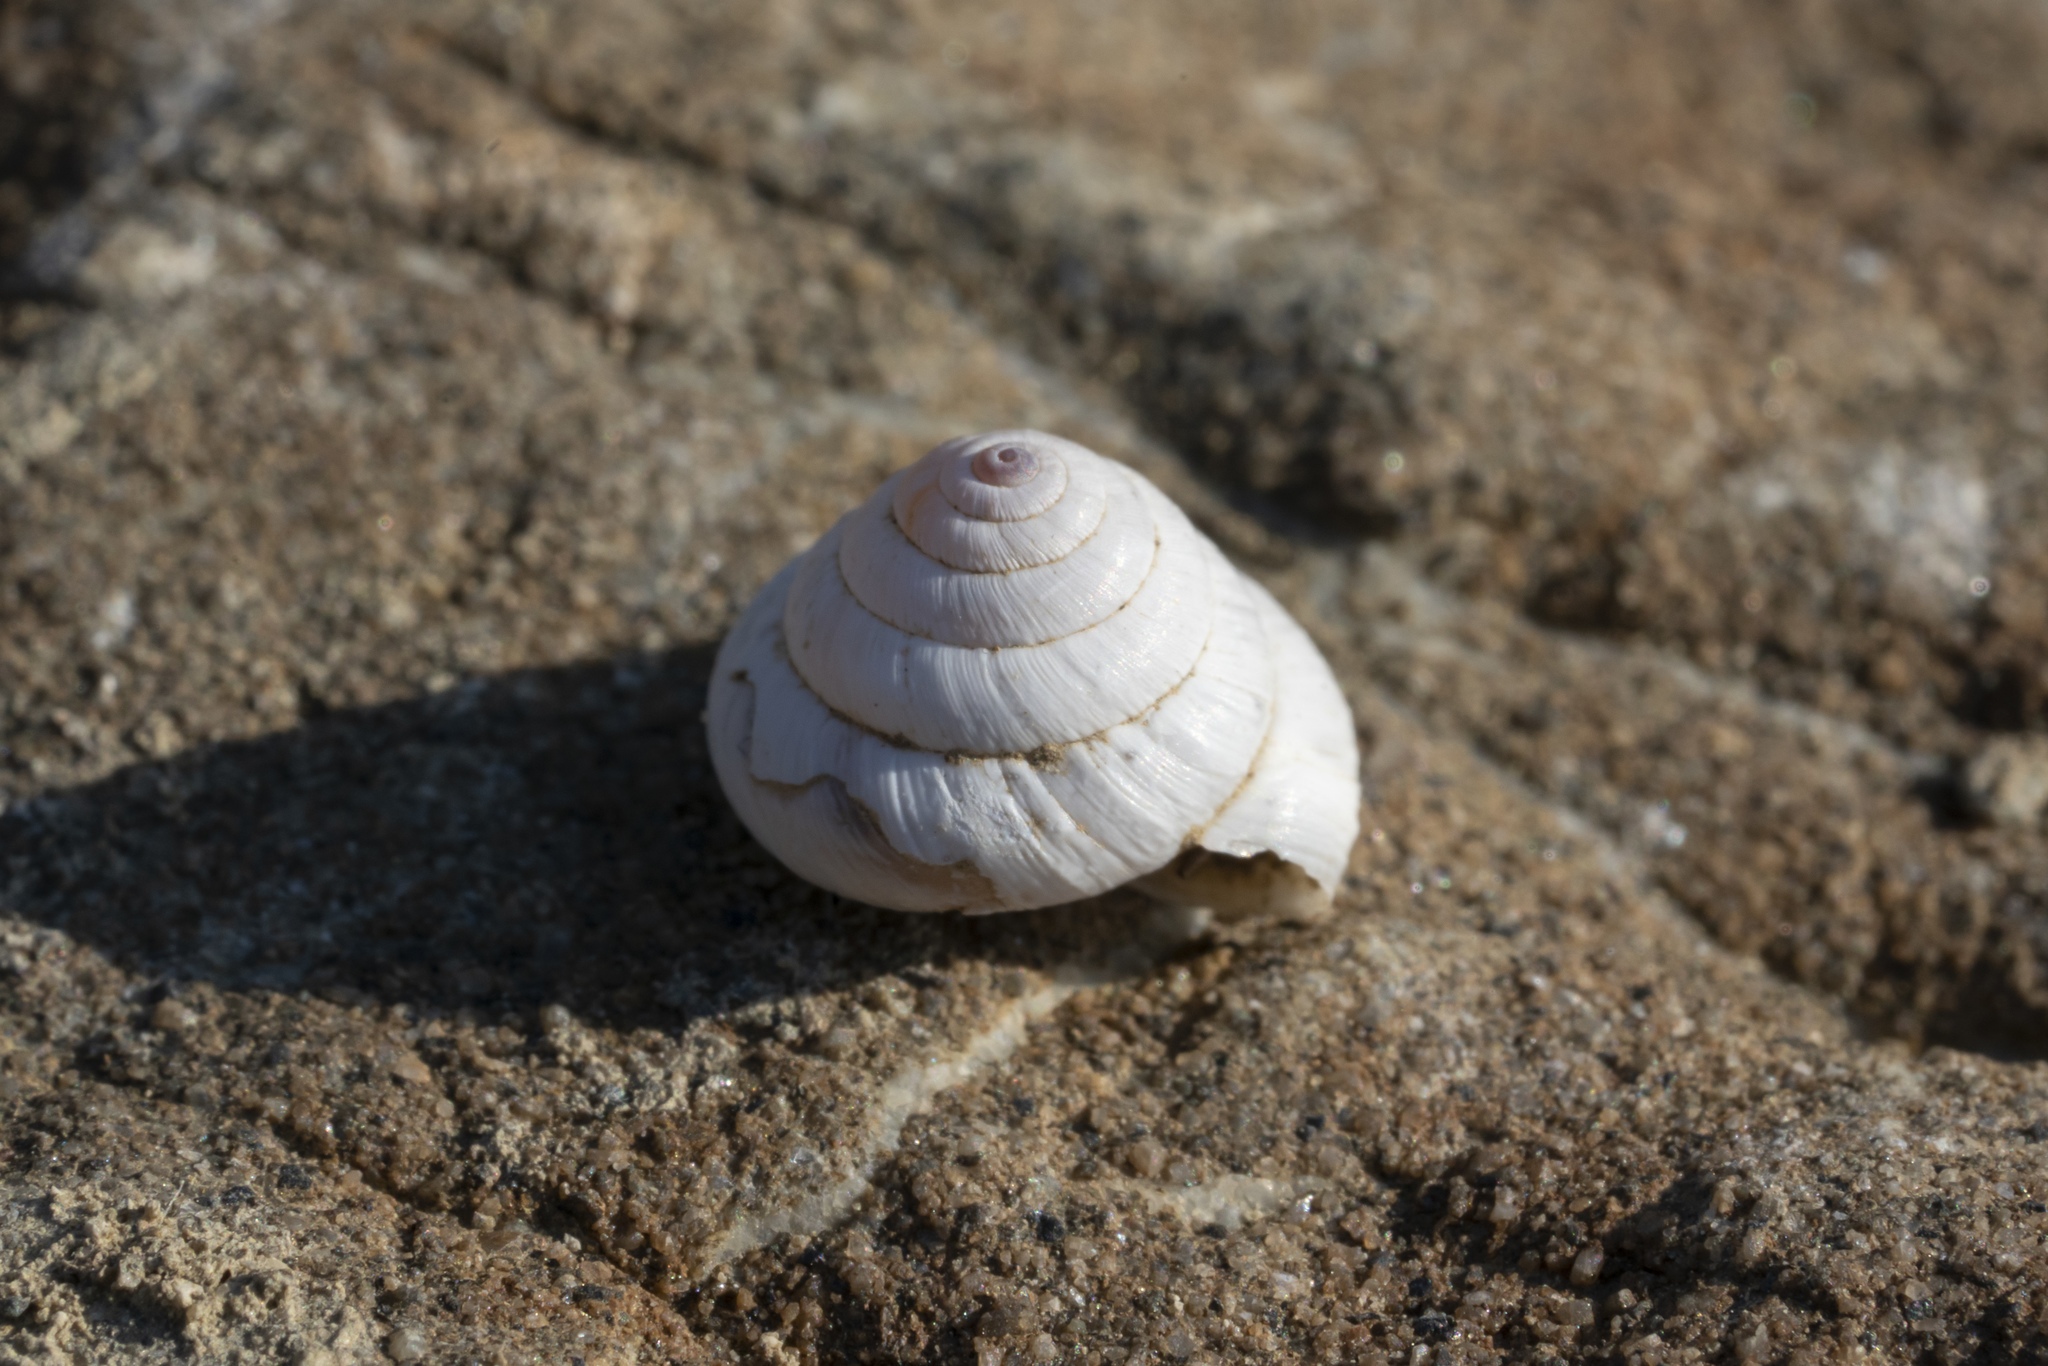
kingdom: Animalia
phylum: Mollusca
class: Gastropoda
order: Stylommatophora
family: Geomitridae
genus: Trochoidea
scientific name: Trochoidea pyramidata
